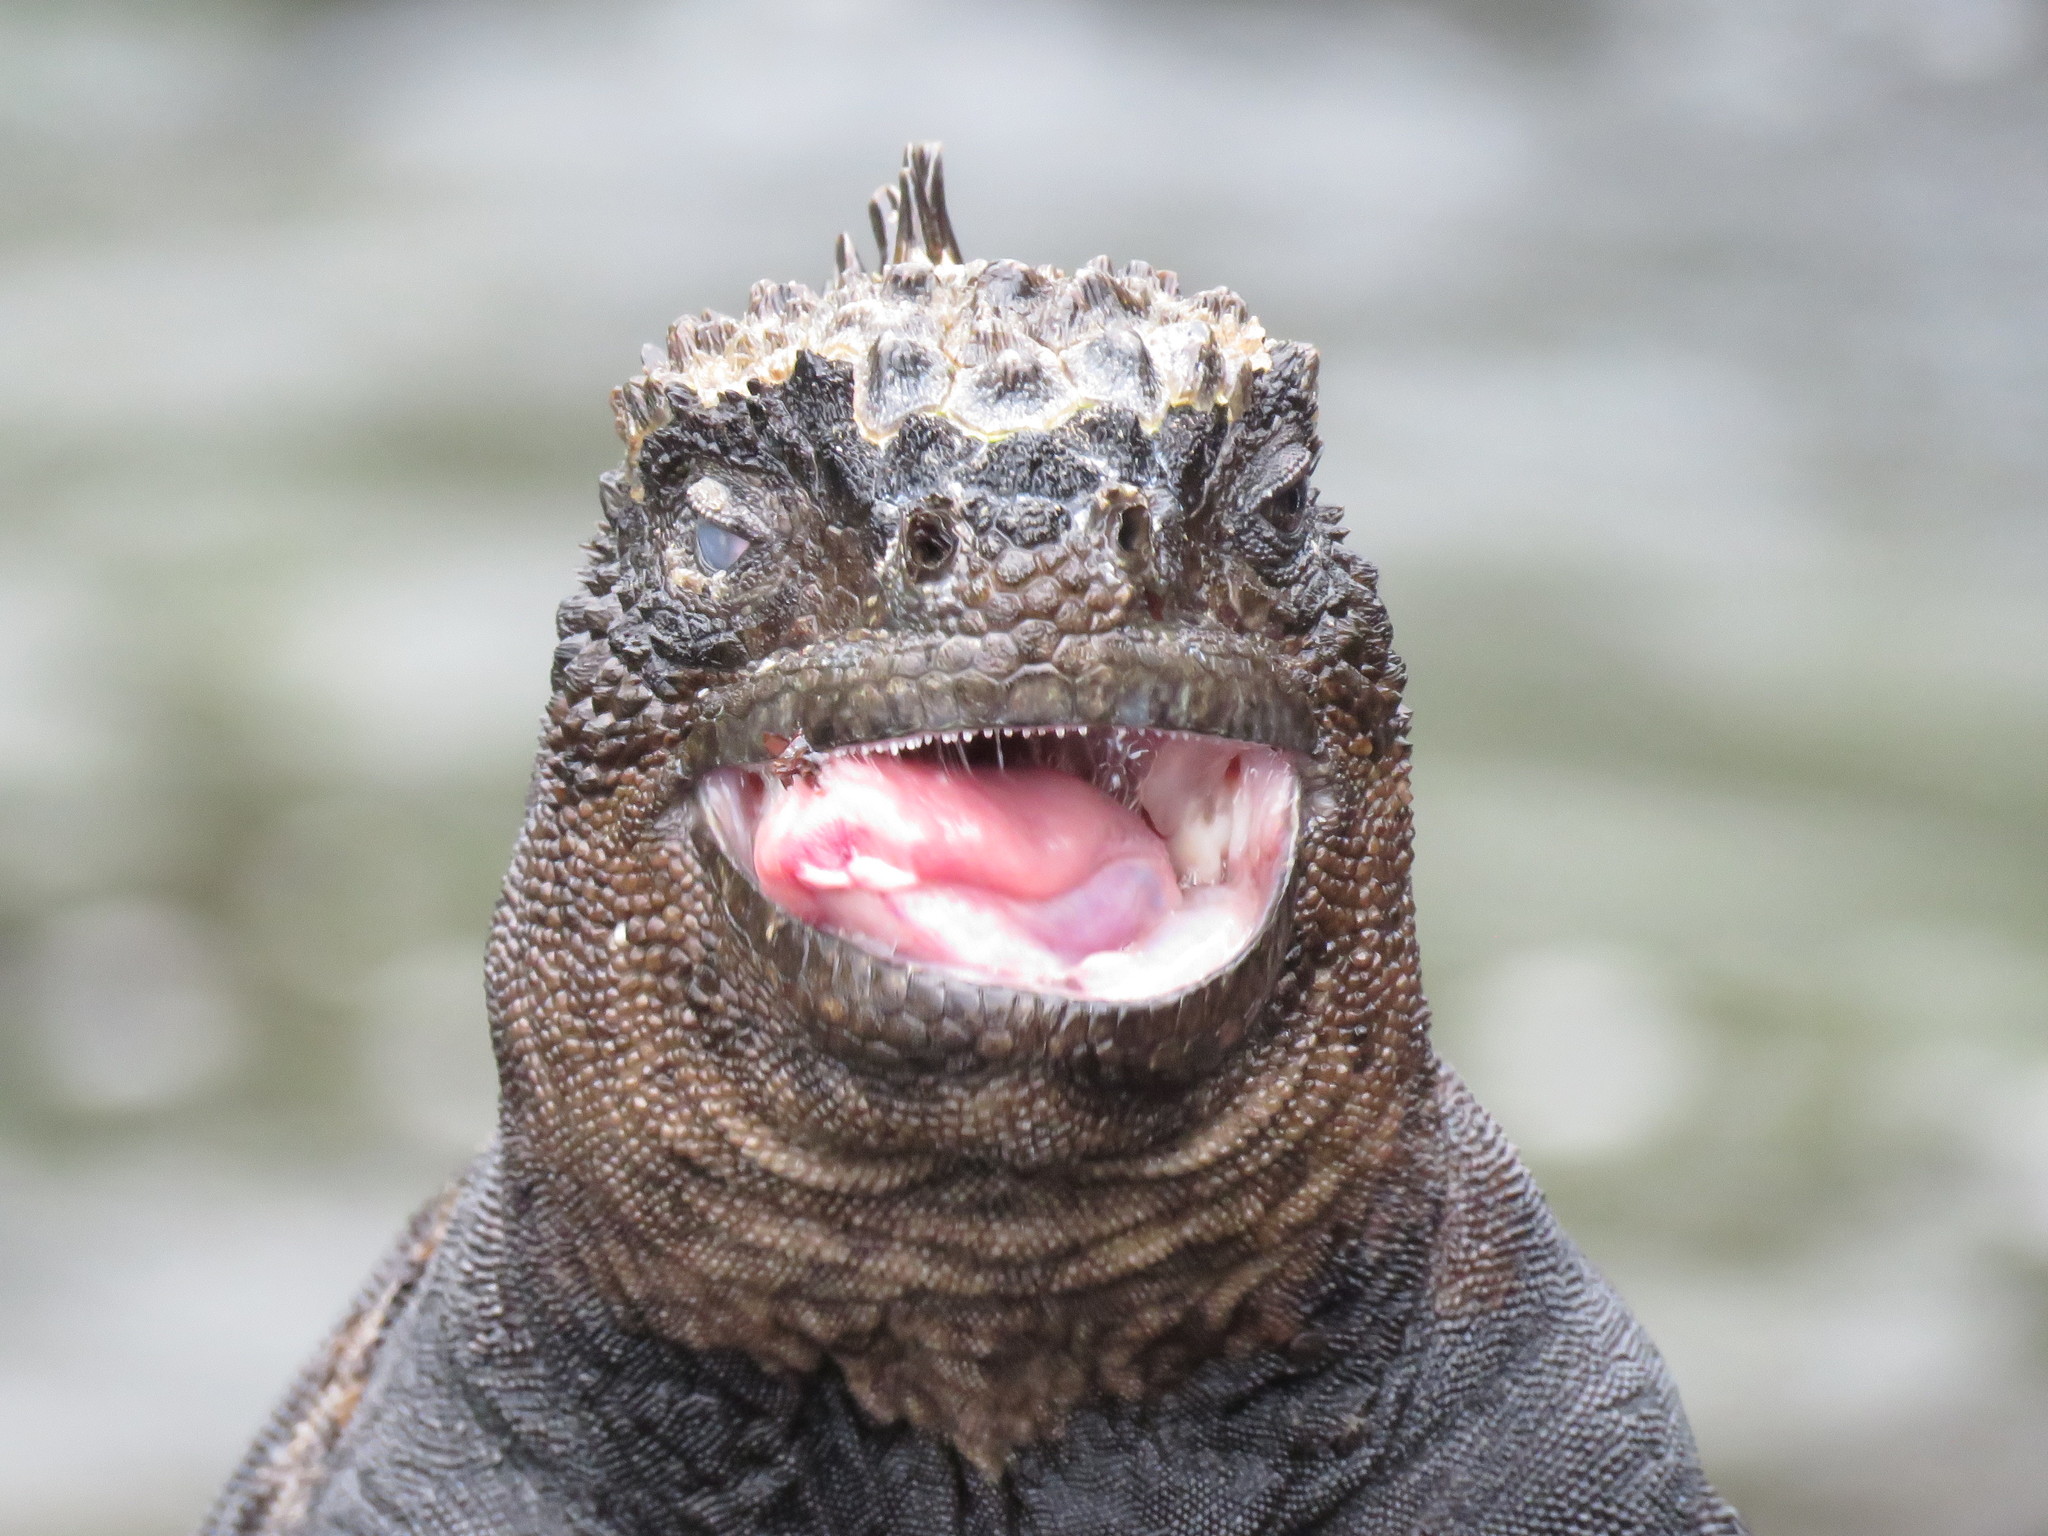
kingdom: Animalia
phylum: Chordata
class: Squamata
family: Iguanidae
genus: Amblyrhynchus
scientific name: Amblyrhynchus cristatus
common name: Marine iguana
